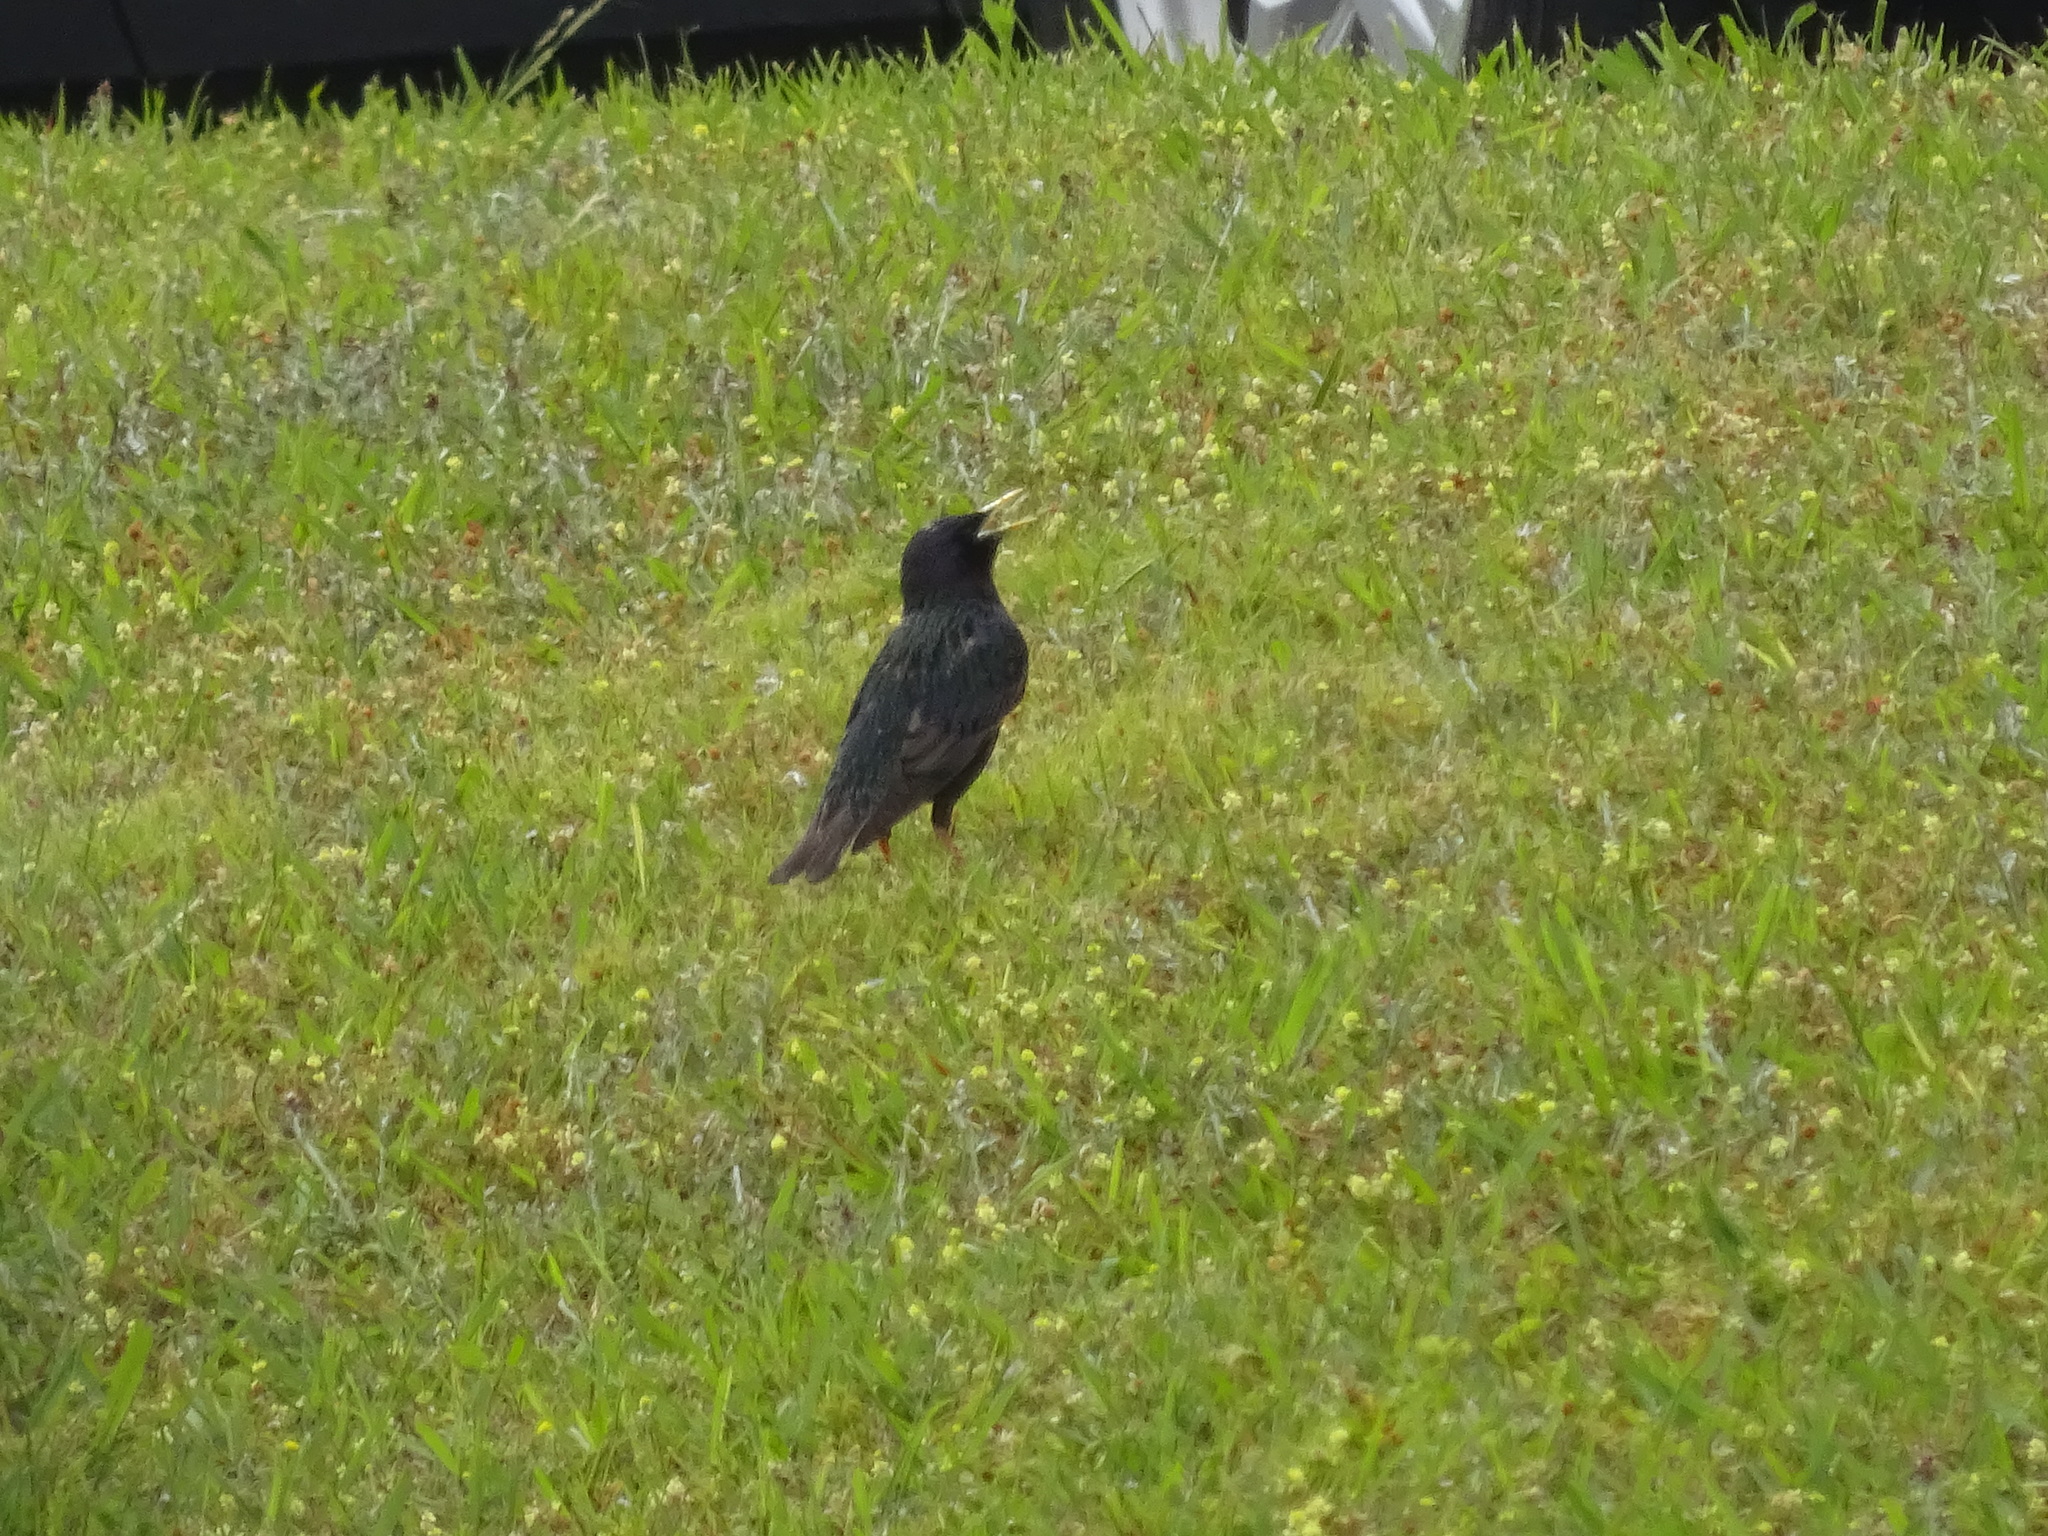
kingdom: Animalia
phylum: Chordata
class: Aves
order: Passeriformes
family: Sturnidae
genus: Sturnus
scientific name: Sturnus vulgaris
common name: Common starling
